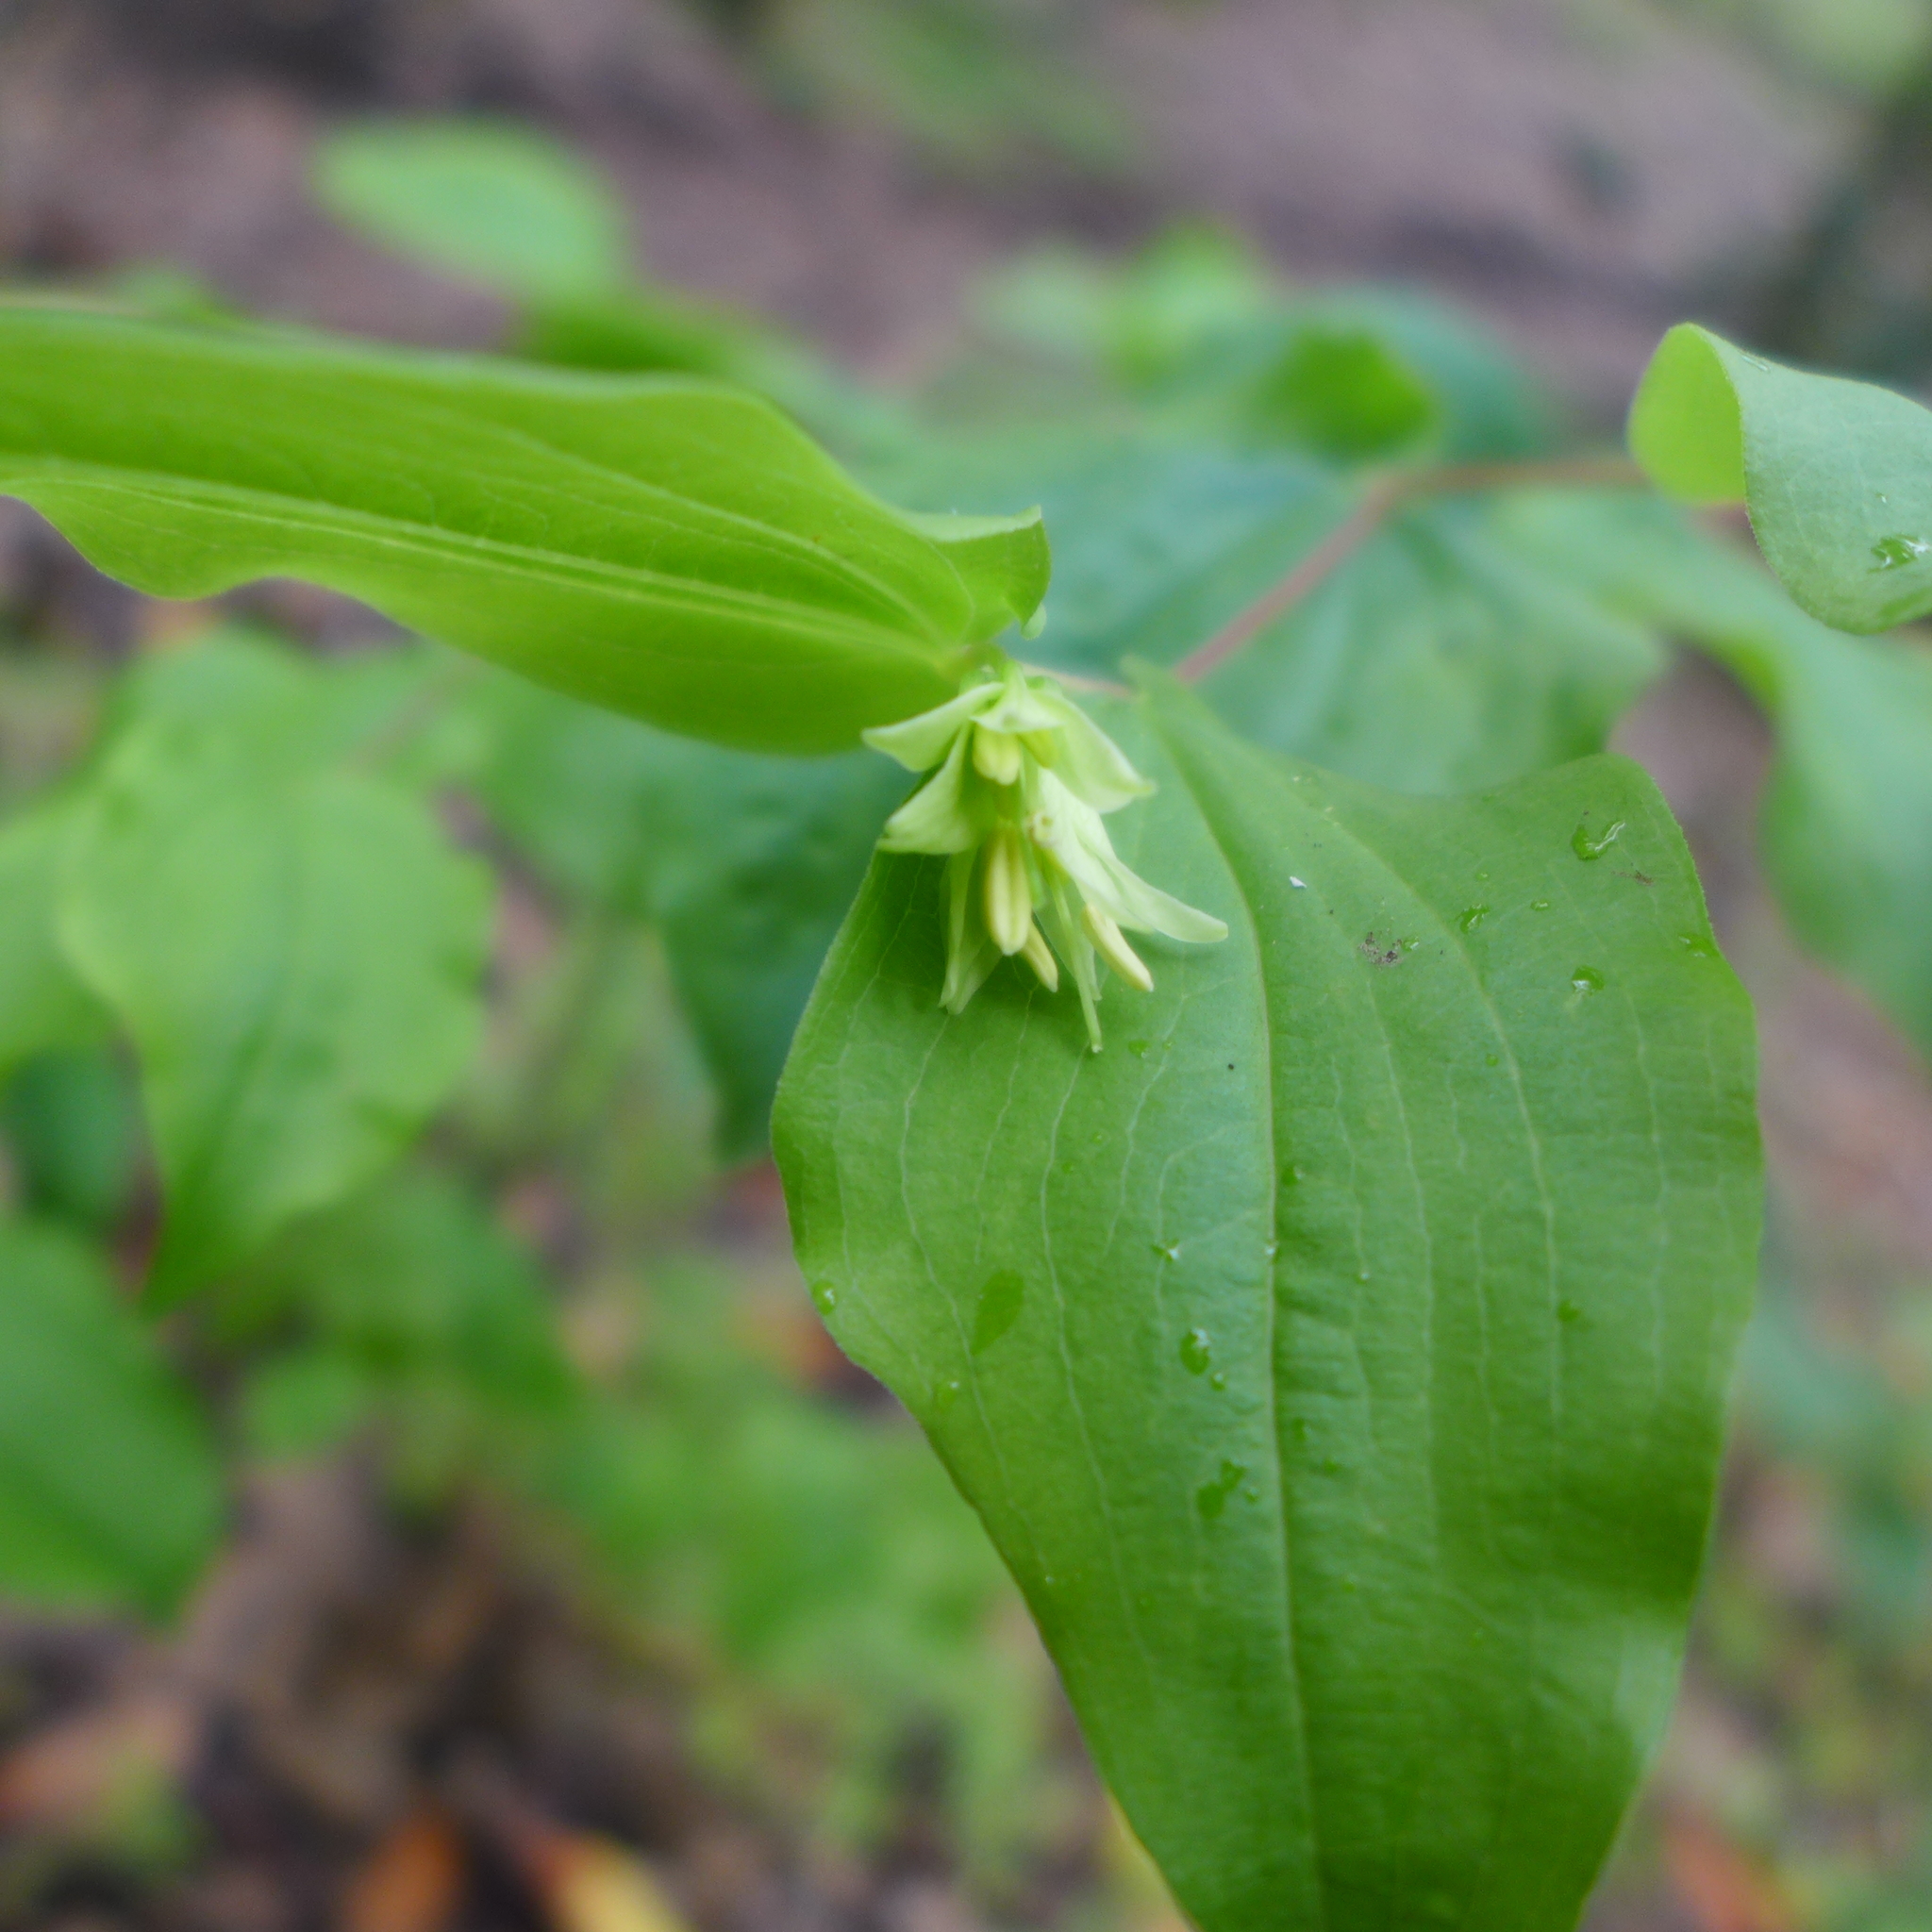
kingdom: Plantae
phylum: Tracheophyta
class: Liliopsida
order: Liliales
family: Liliaceae
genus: Prosartes
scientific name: Prosartes hookeri
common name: Fairy-bells
